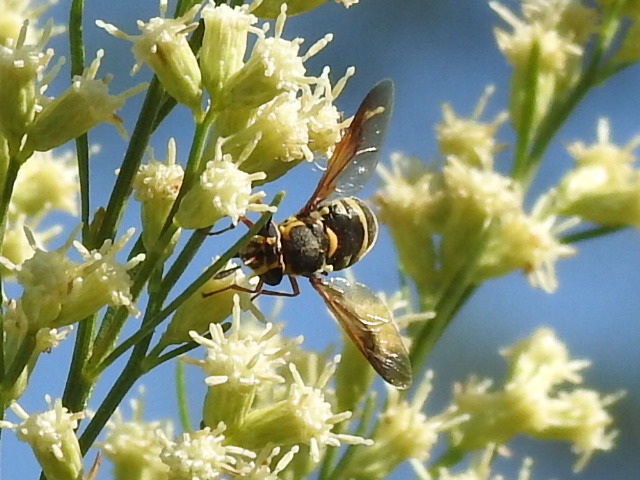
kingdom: Animalia
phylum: Arthropoda
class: Insecta
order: Diptera
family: Stratiomyidae
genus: Hoplitimyia
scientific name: Hoplitimyia constans
